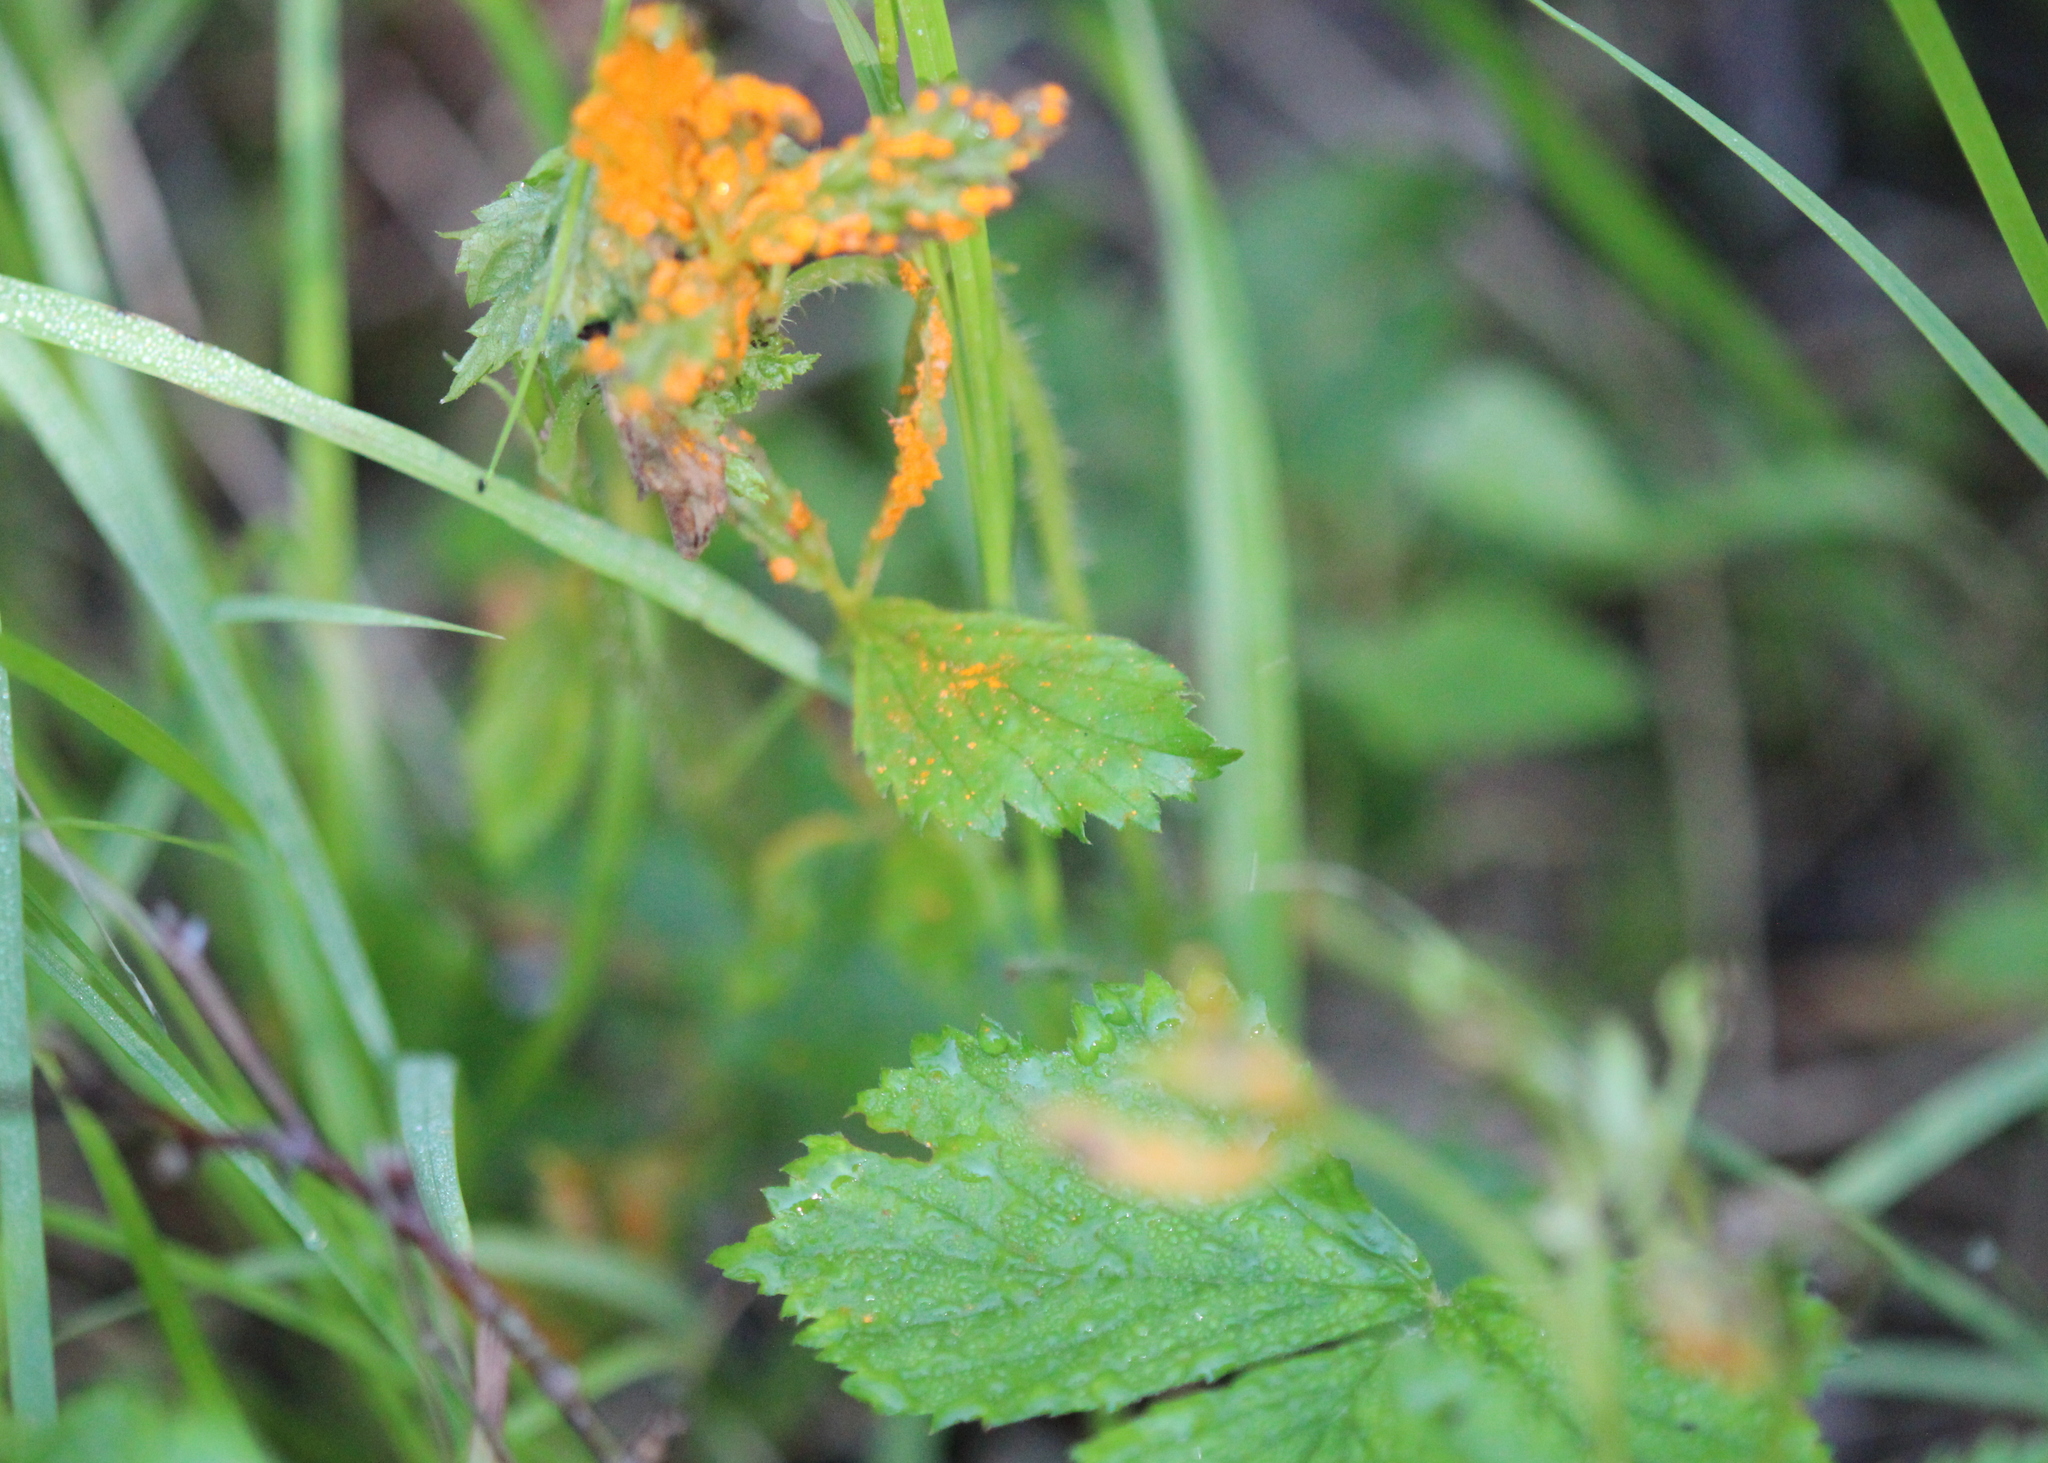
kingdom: Fungi
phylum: Basidiomycota
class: Pucciniomycetes
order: Pucciniales
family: Phragmidiaceae
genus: Arthuriomyces
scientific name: Arthuriomyces peckianus
